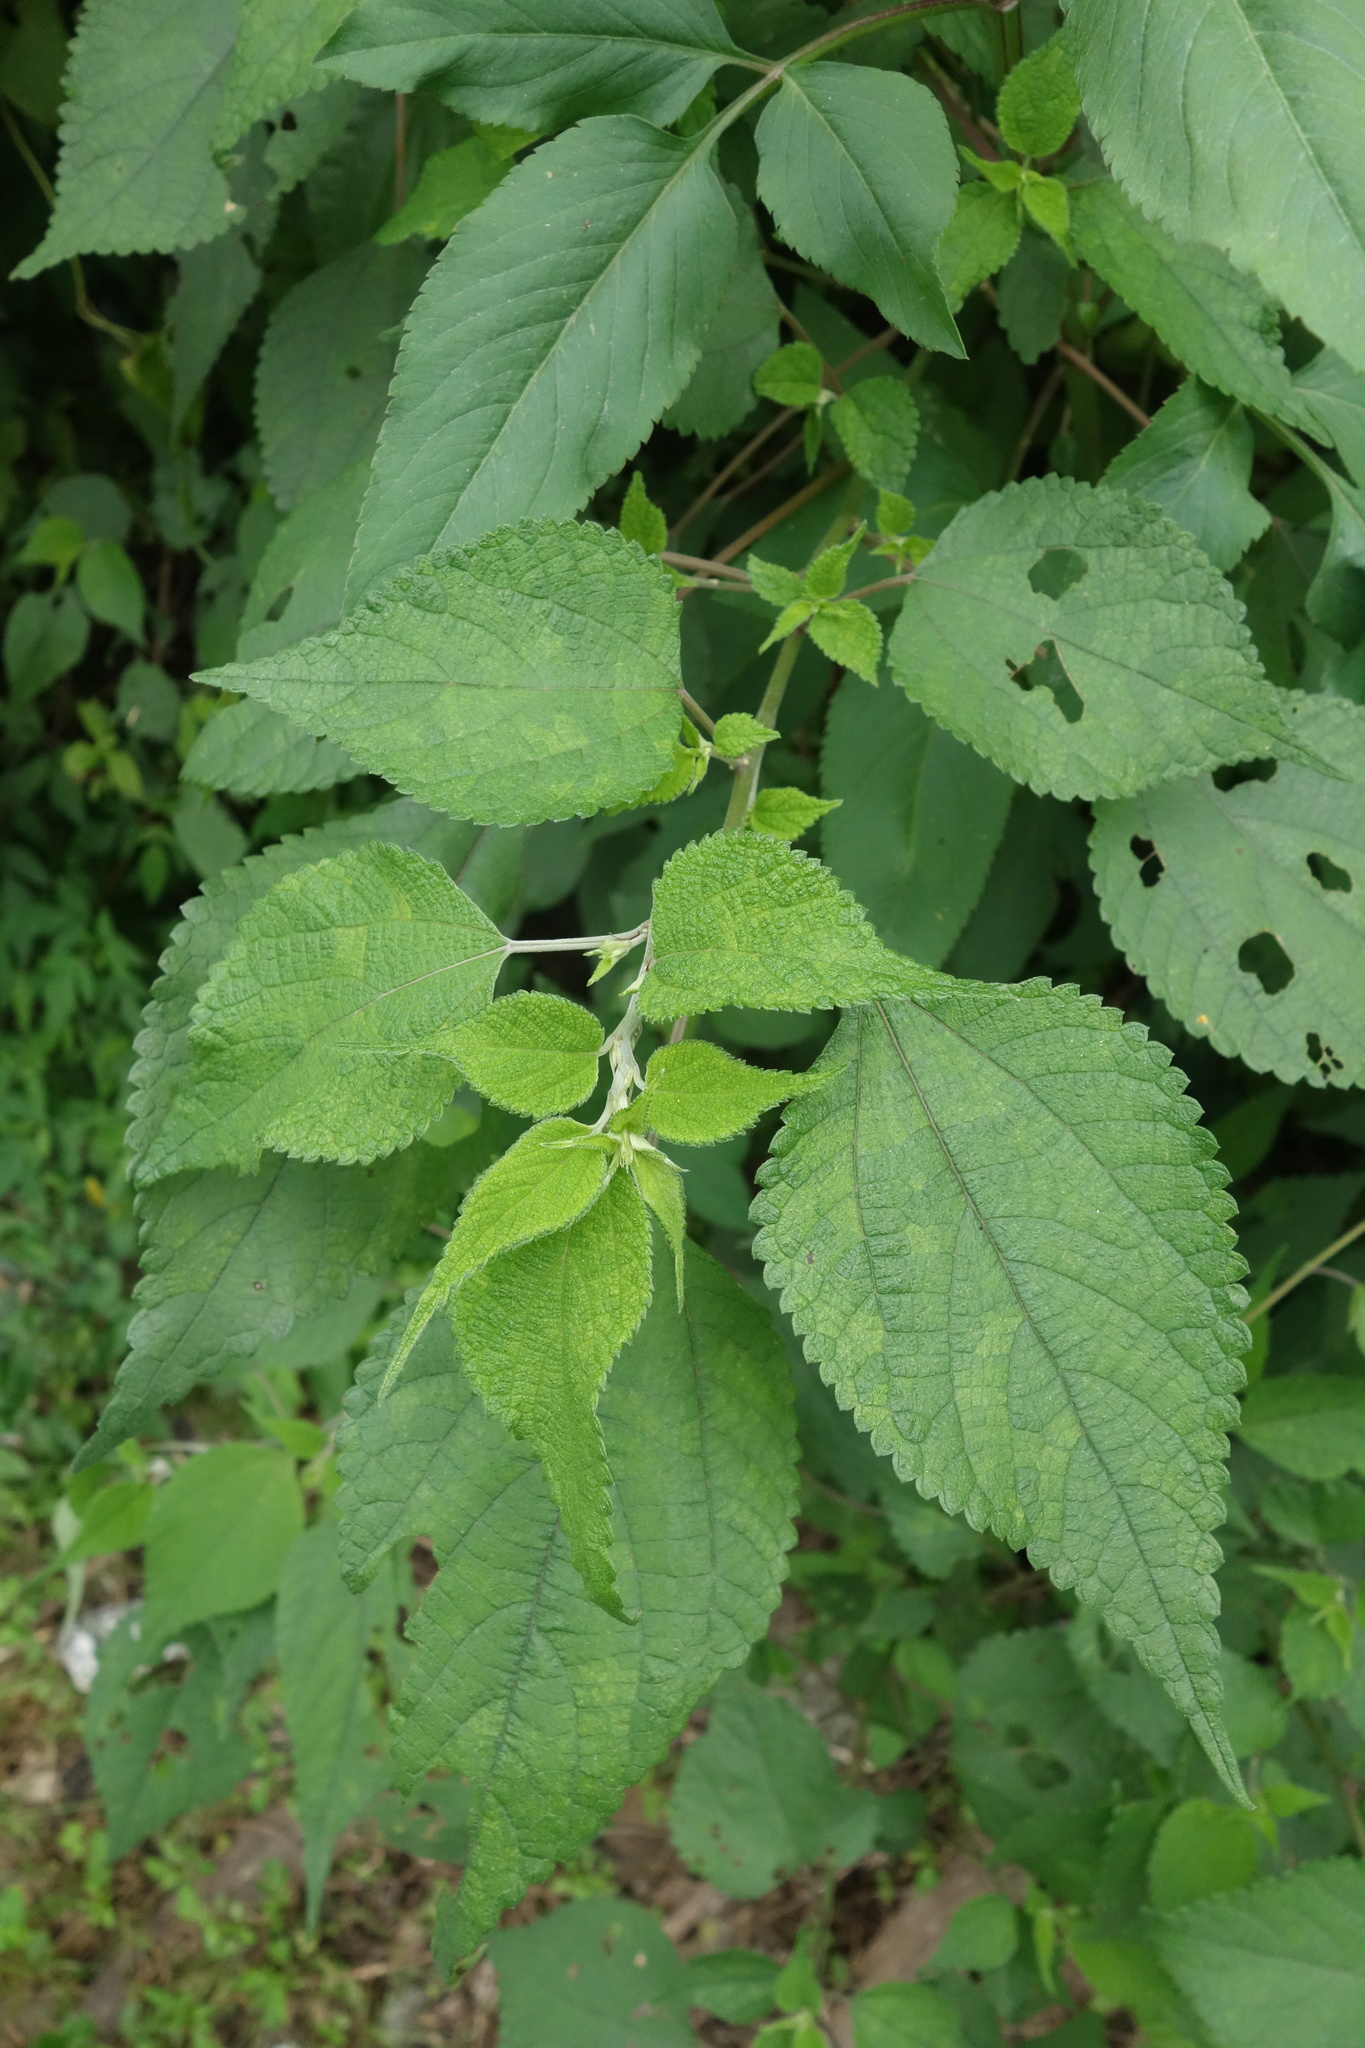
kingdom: Plantae
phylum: Tracheophyta
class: Magnoliopsida
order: Rosales
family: Urticaceae
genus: Boehmeria
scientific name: Boehmeria nivea
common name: Ramie chinese grass
